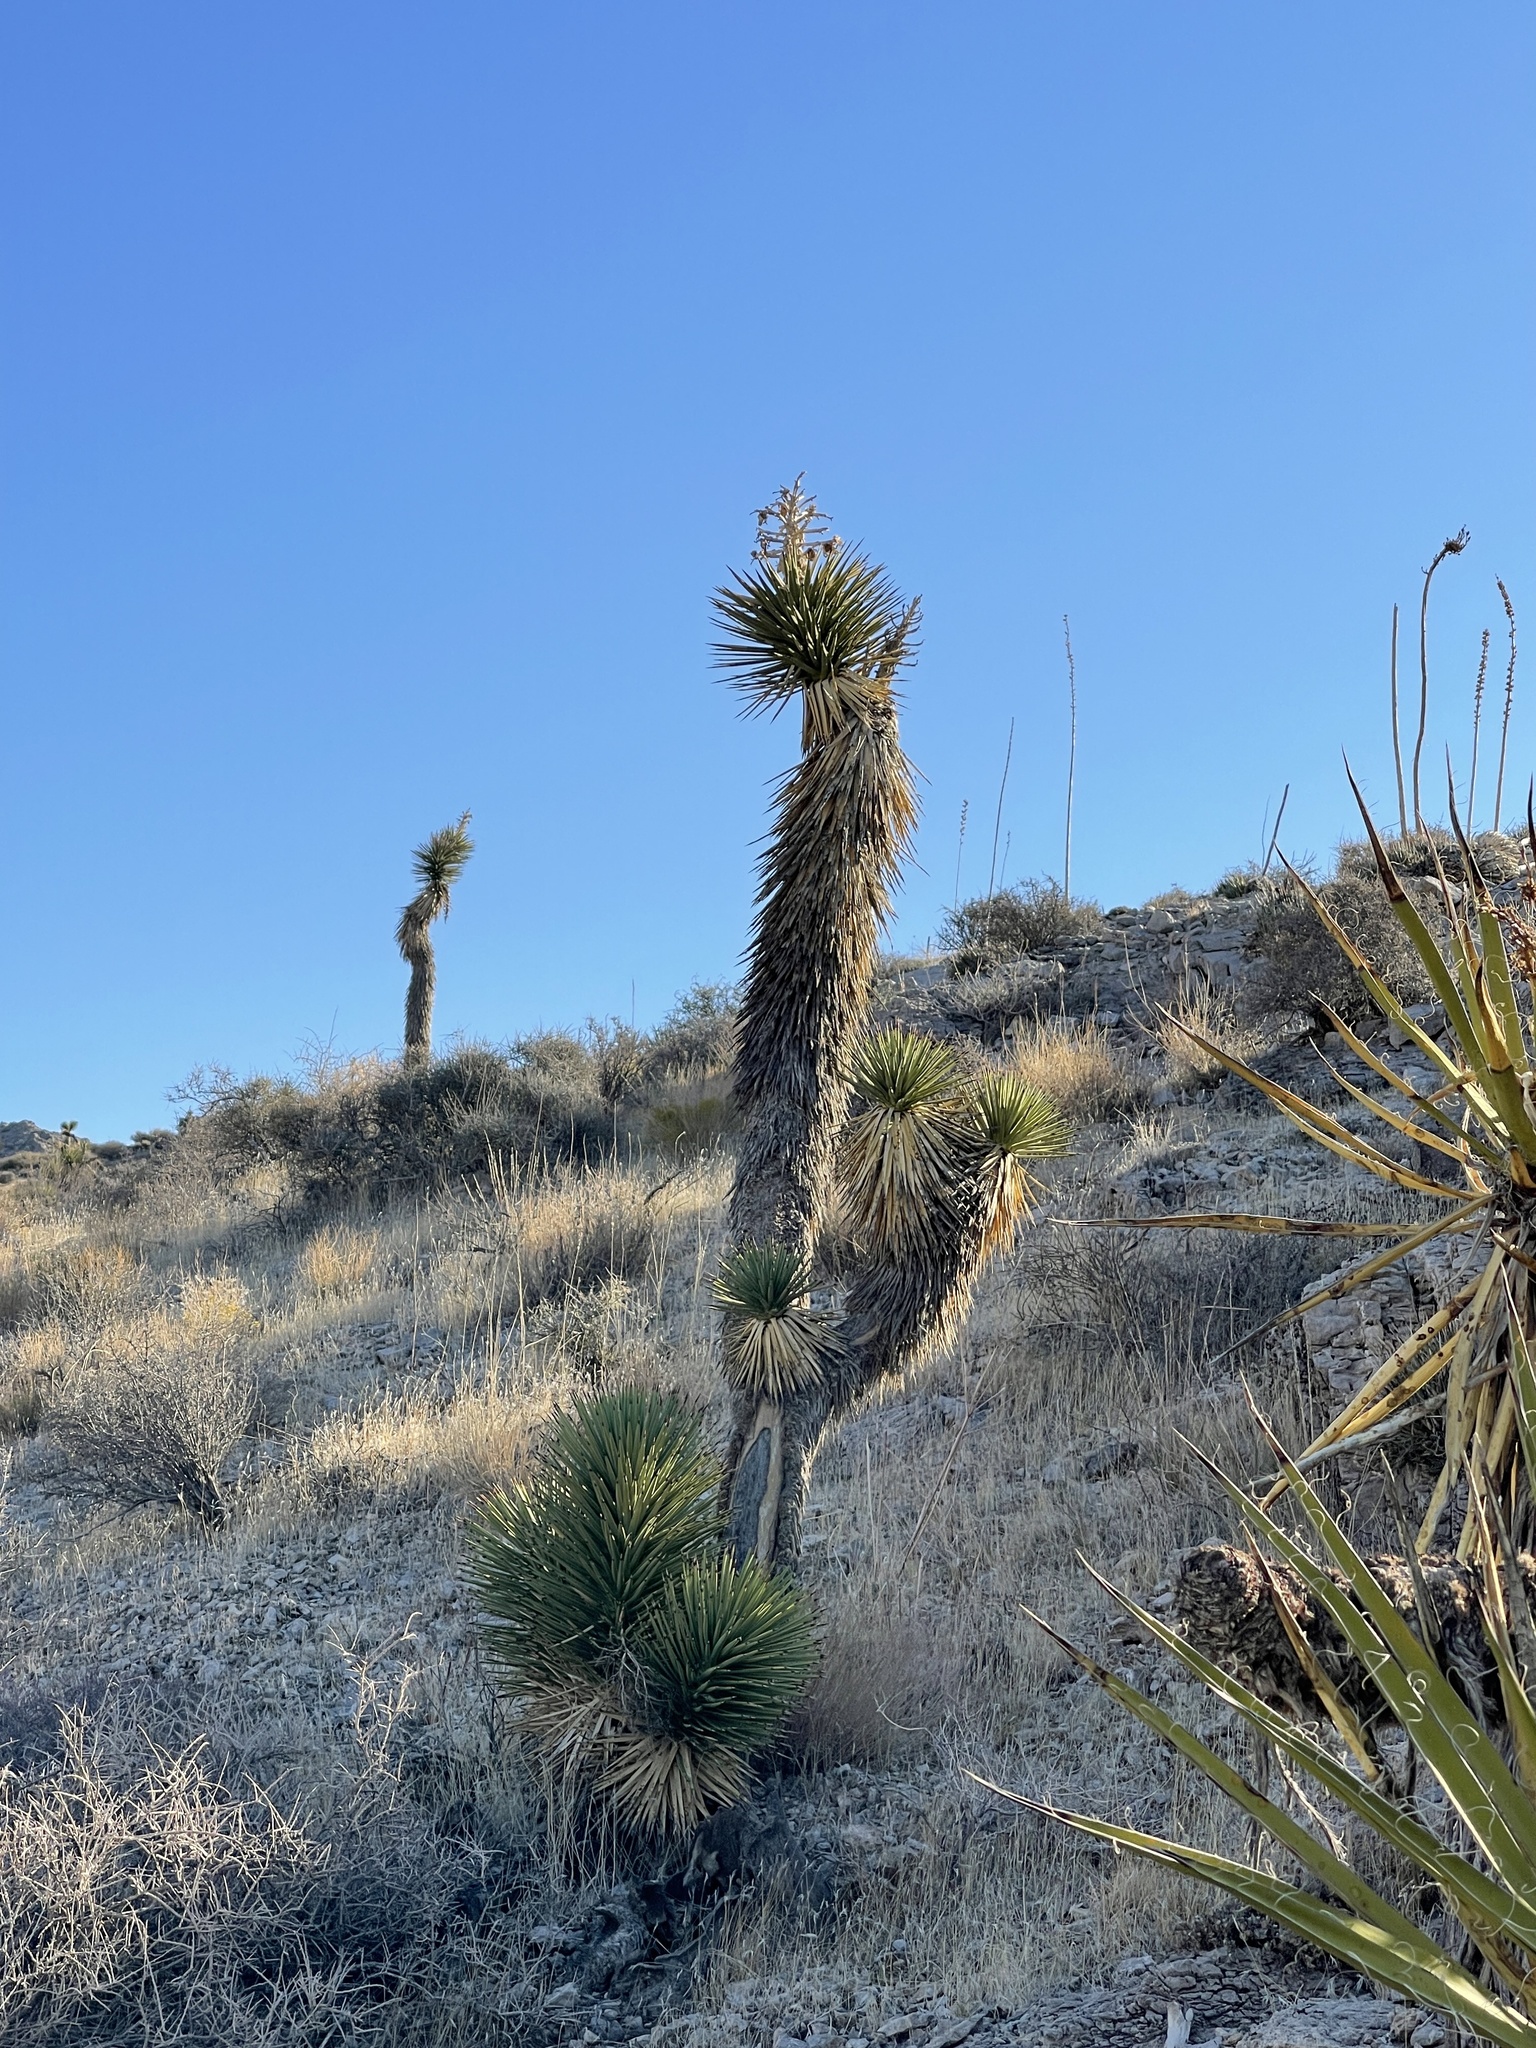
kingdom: Plantae
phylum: Tracheophyta
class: Liliopsida
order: Asparagales
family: Asparagaceae
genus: Yucca
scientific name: Yucca brevifolia
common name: Joshua tree
